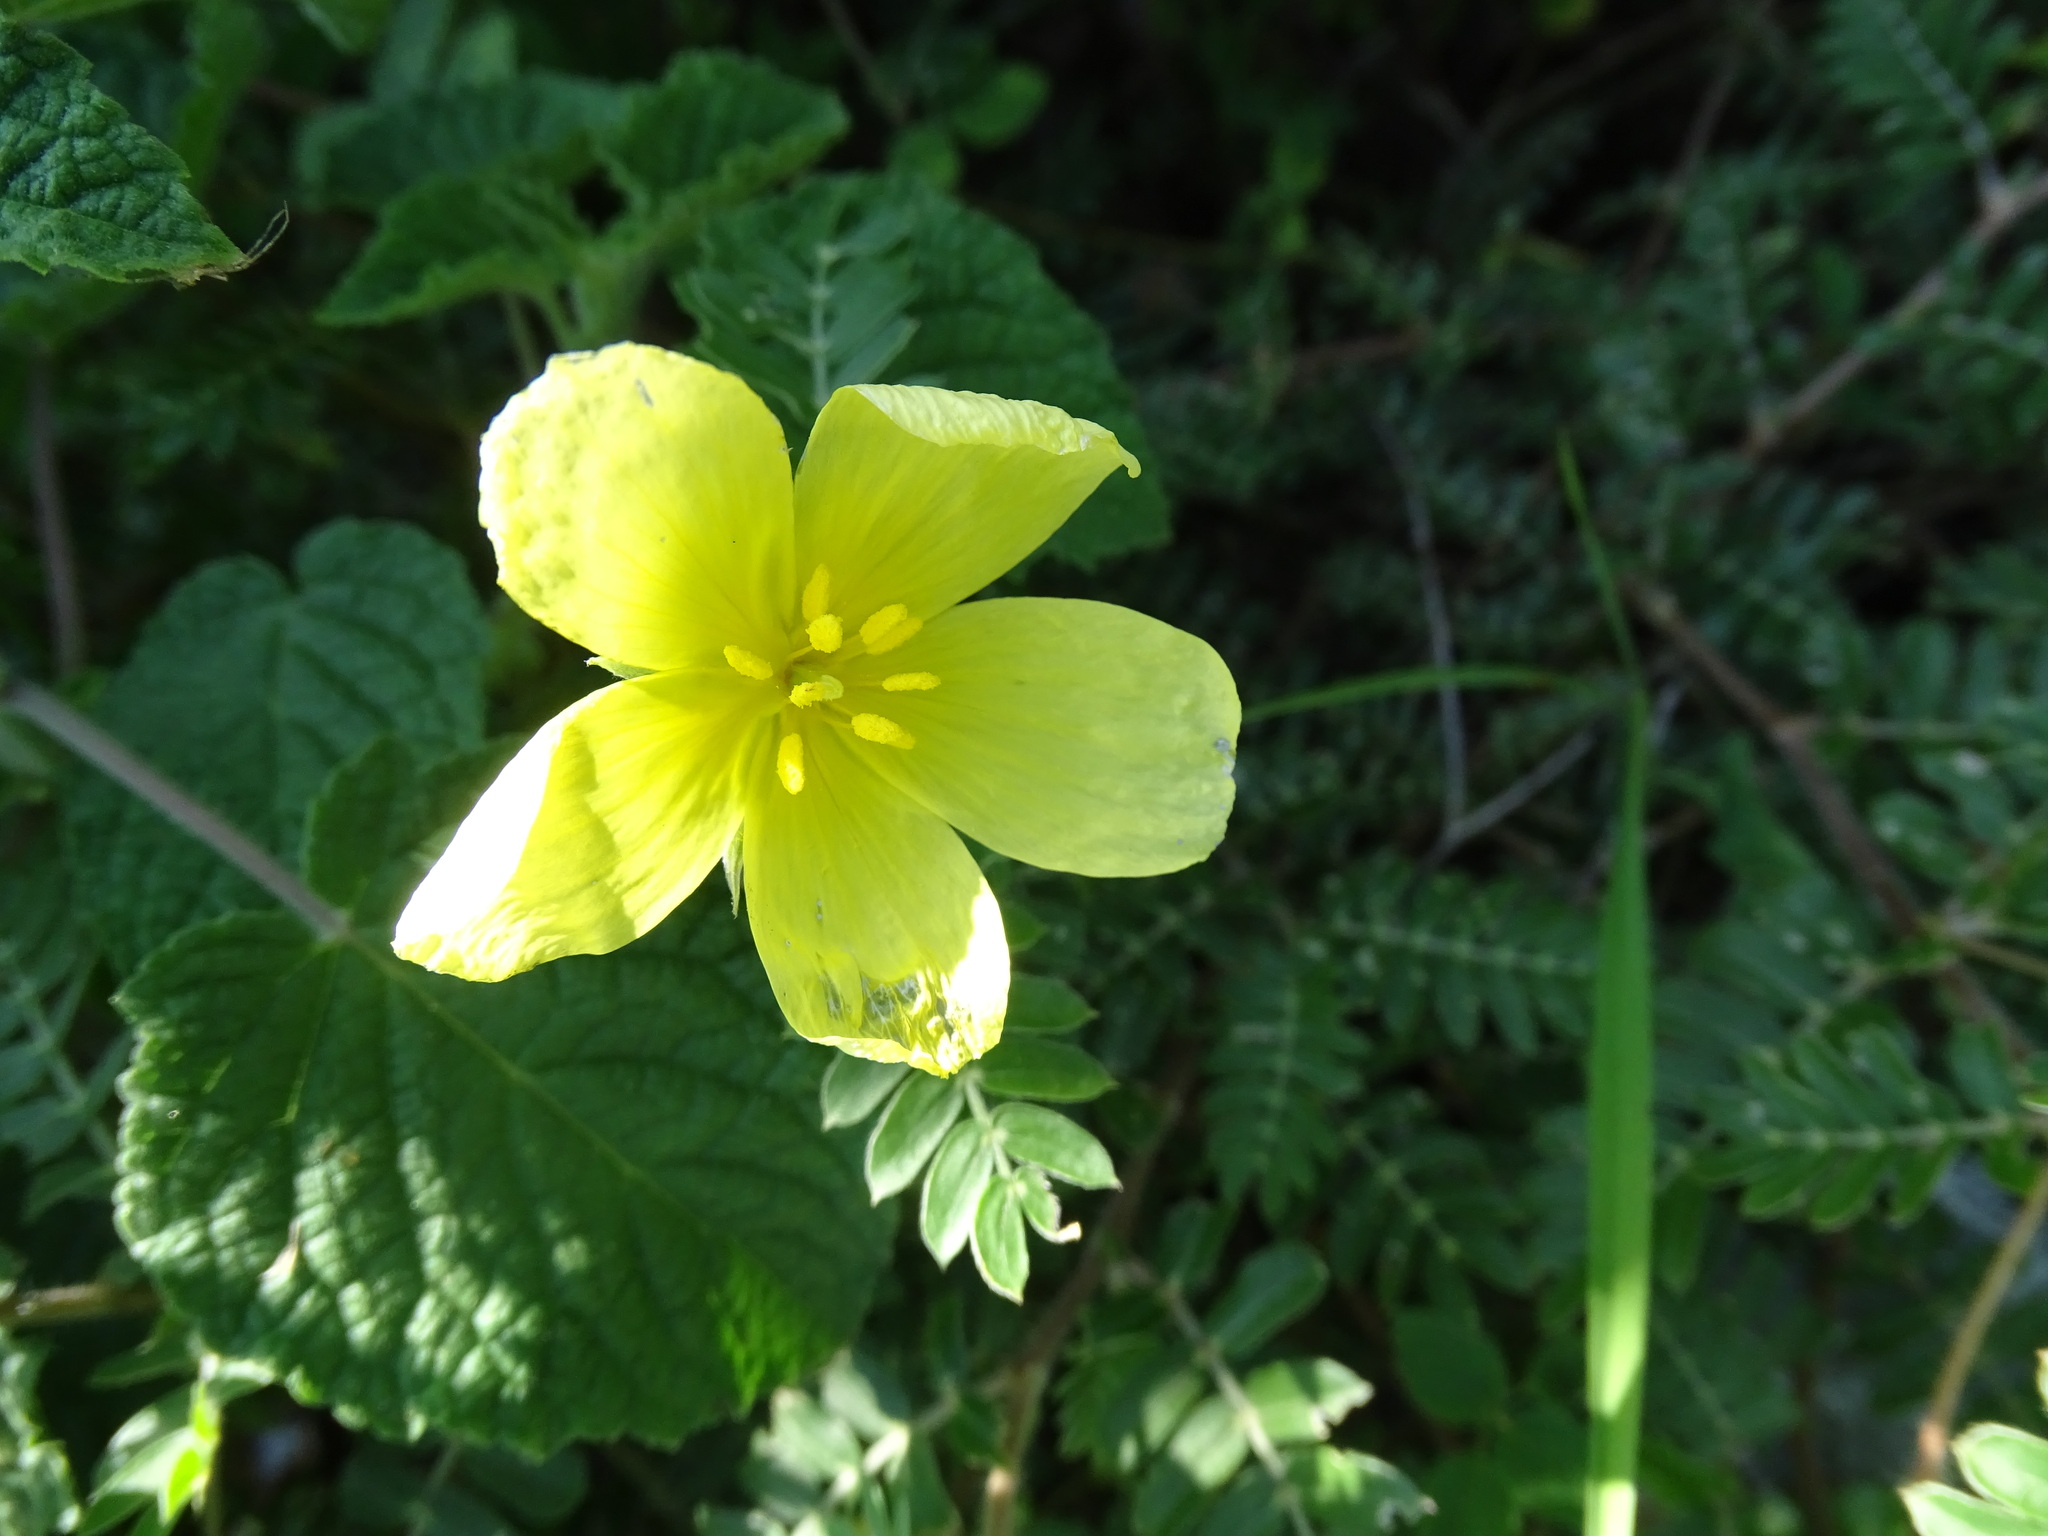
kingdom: Plantae
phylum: Tracheophyta
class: Magnoliopsida
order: Zygophyllales
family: Zygophyllaceae
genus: Tribulus
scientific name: Tribulus cistoides
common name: Jamaican feverplant
